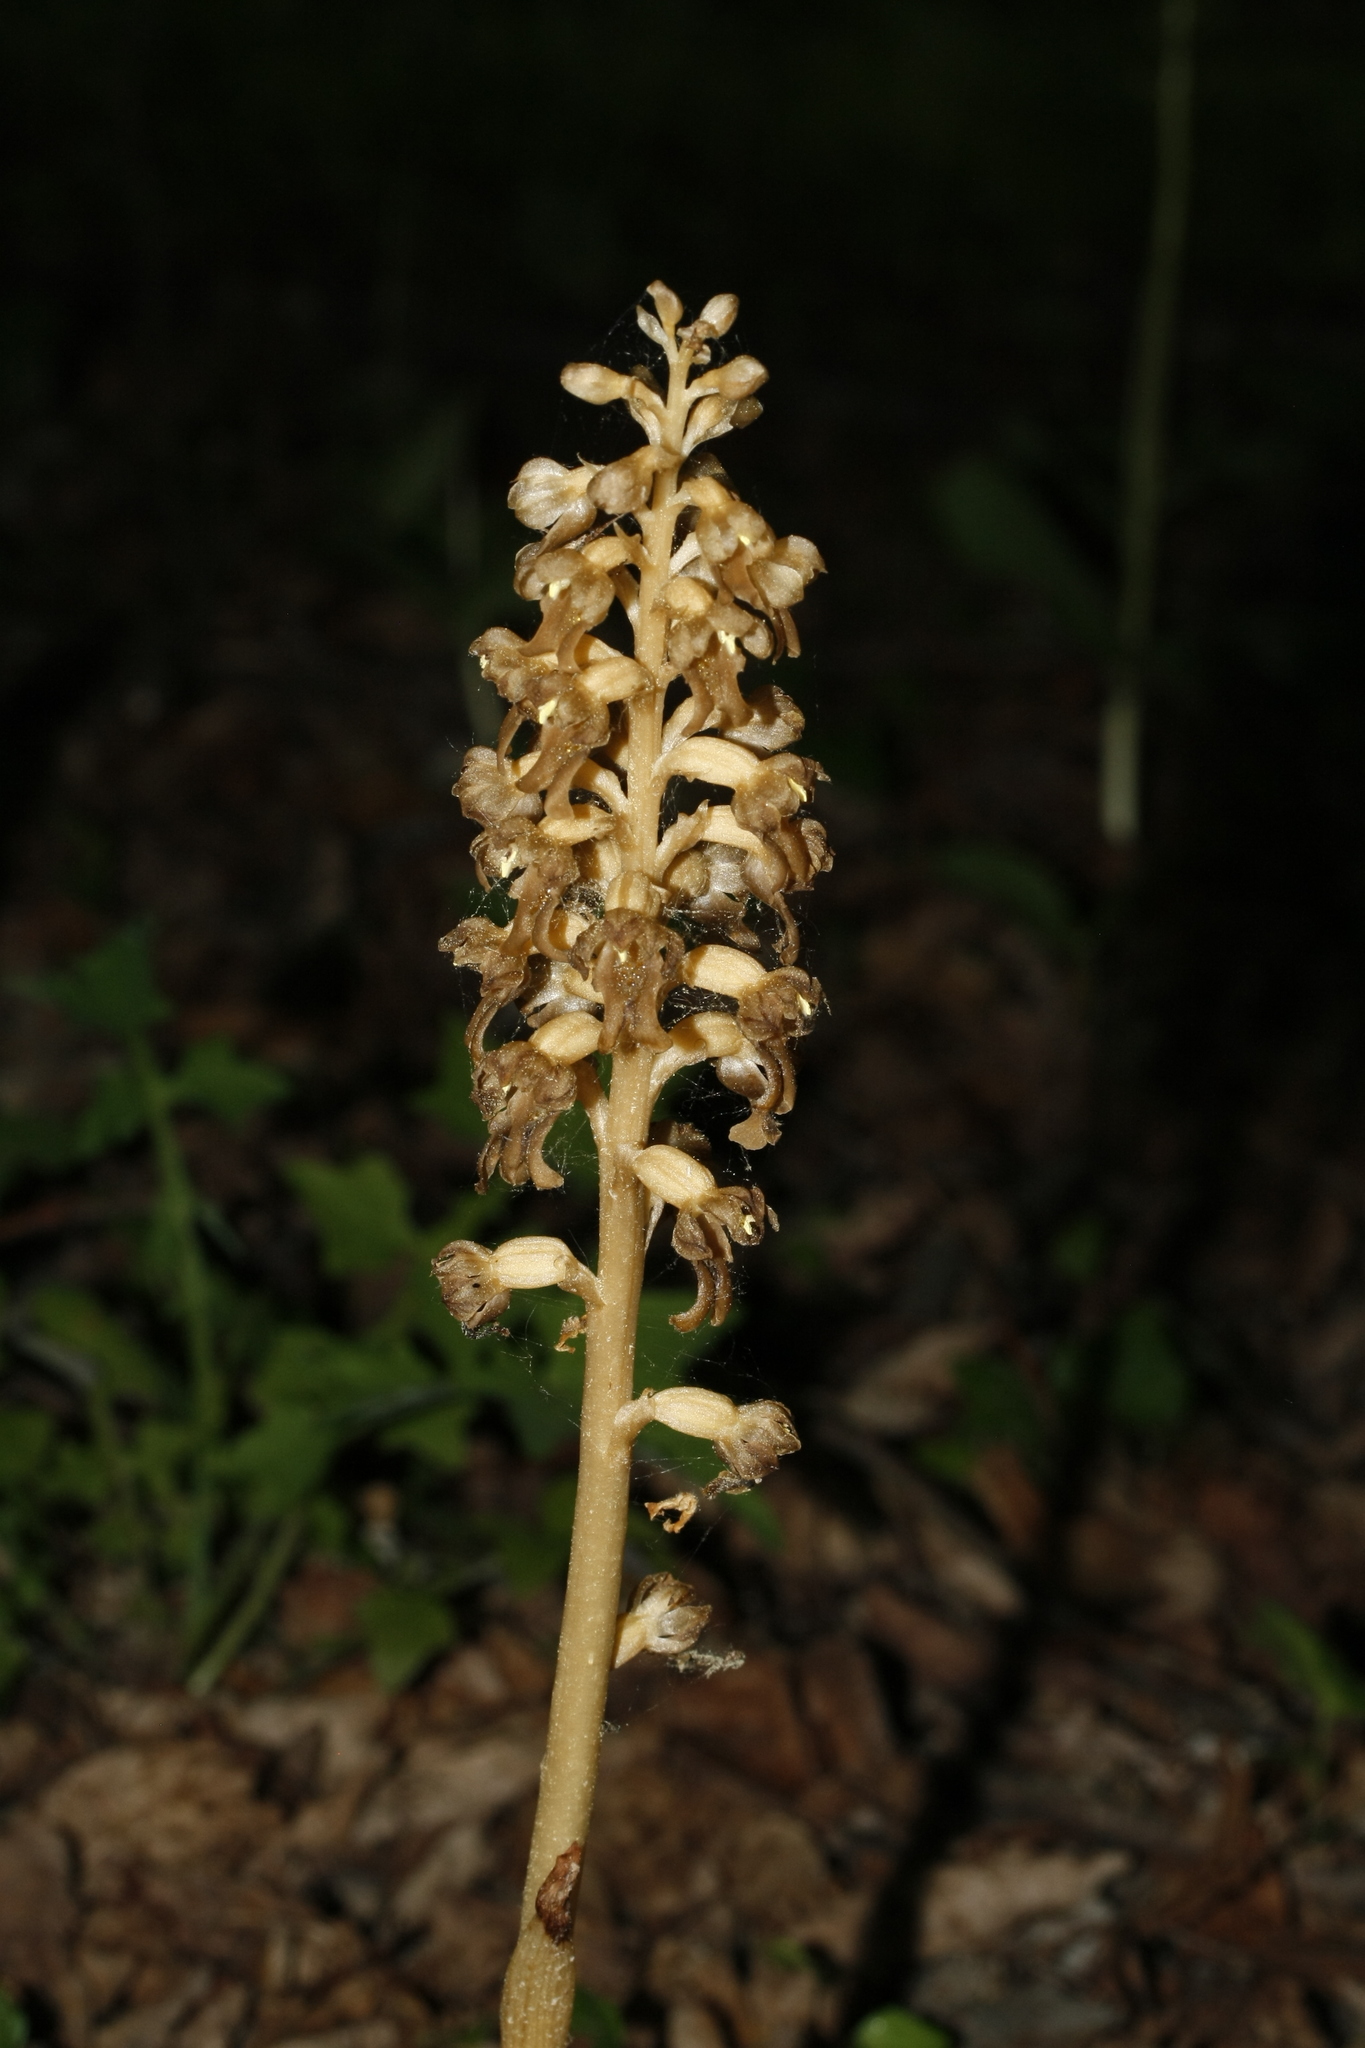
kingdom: Plantae
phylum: Tracheophyta
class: Liliopsida
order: Asparagales
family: Orchidaceae
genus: Neottia
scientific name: Neottia nidus-avis
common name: Bird's-nest orchid
